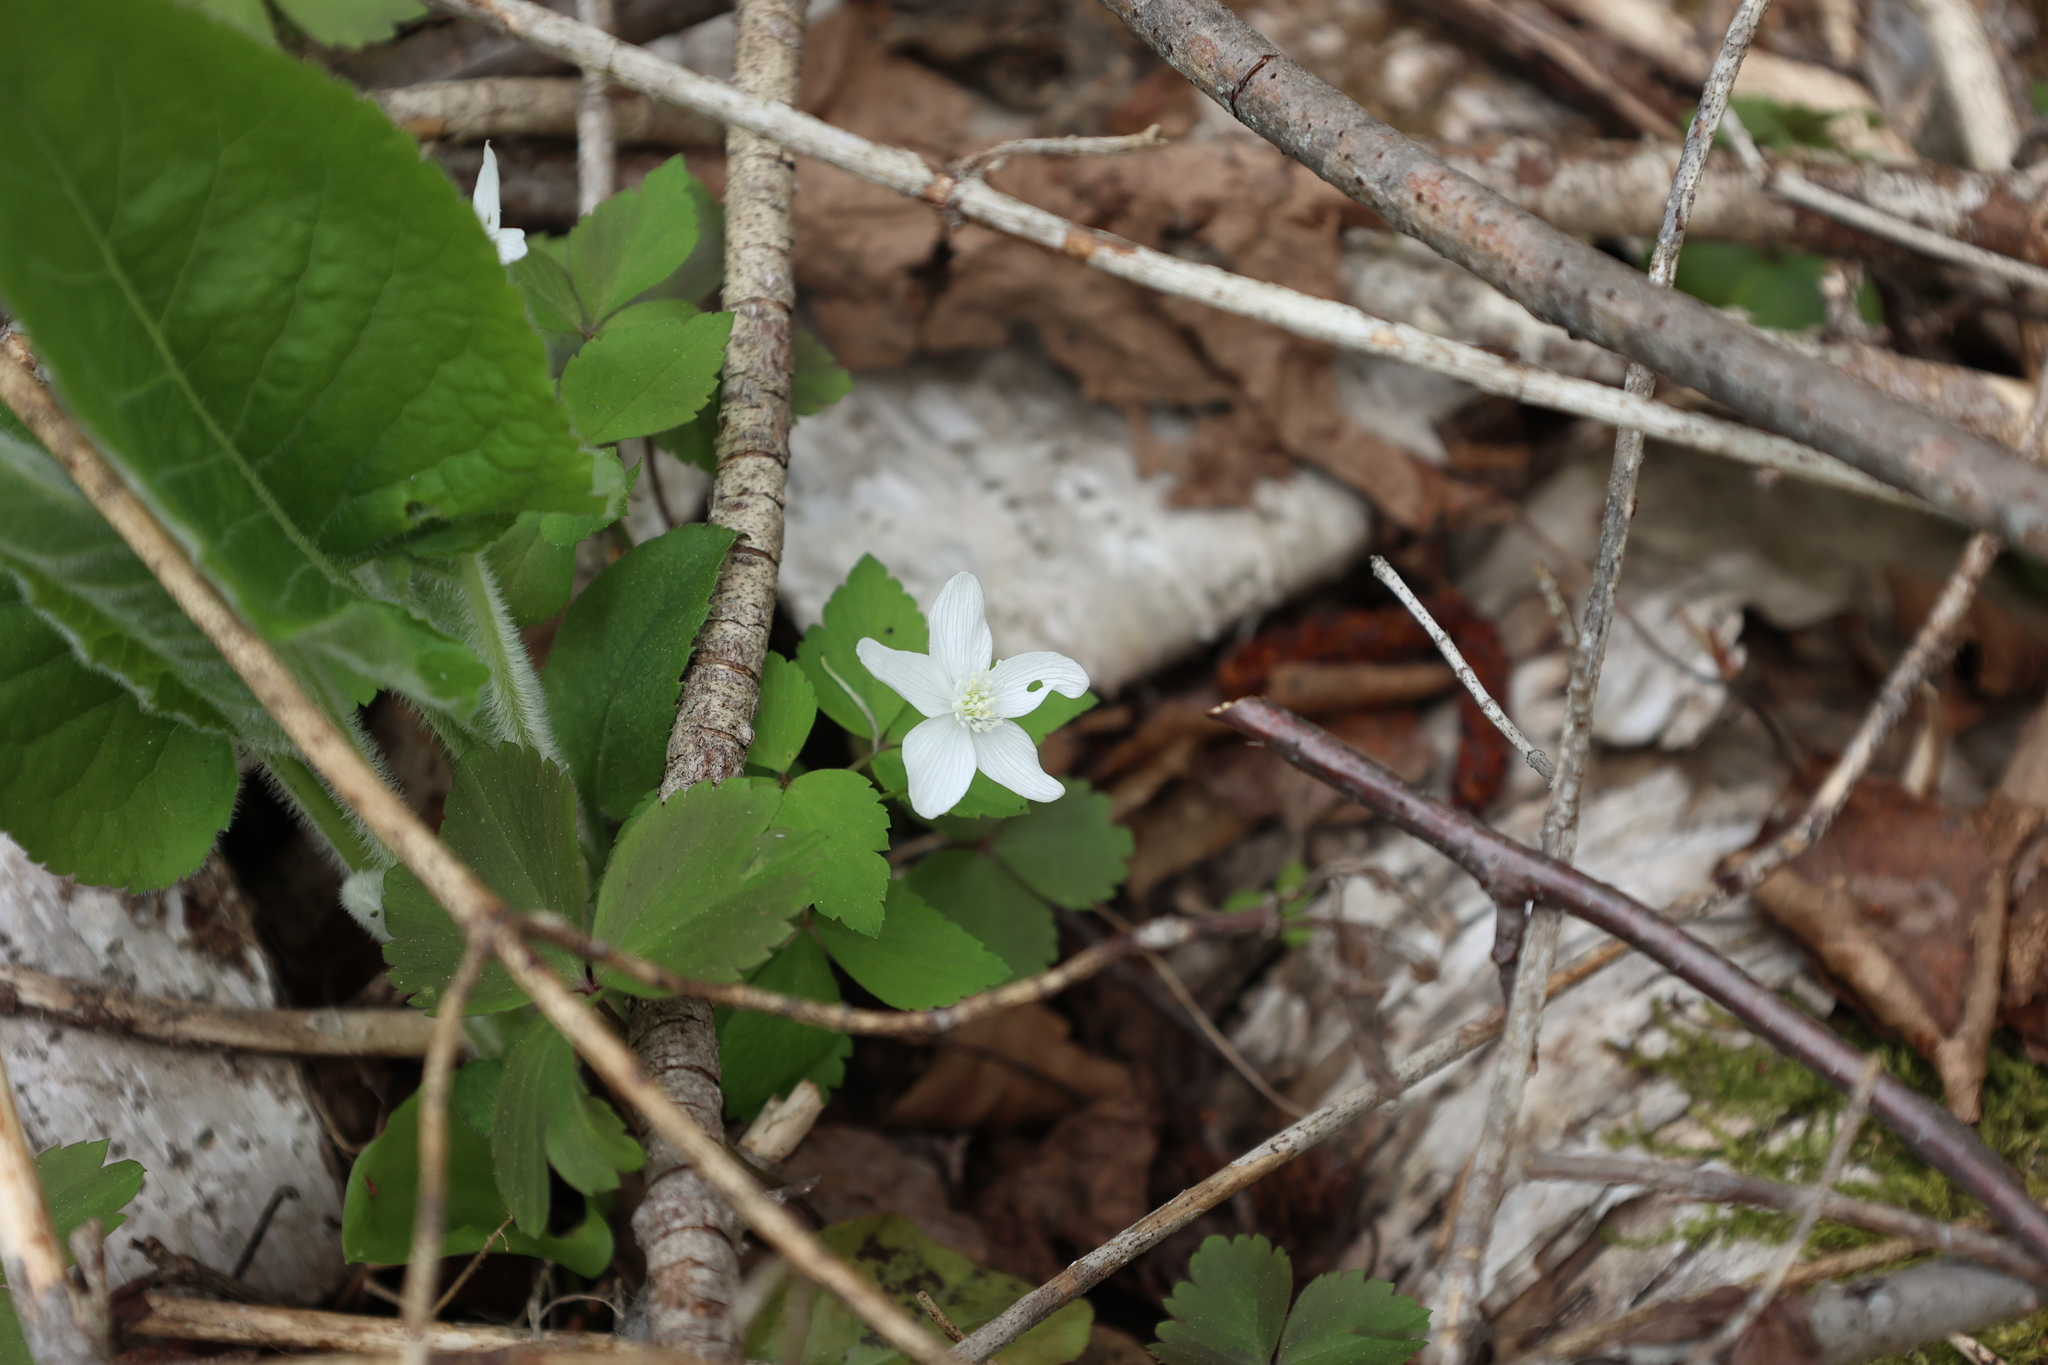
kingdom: Plantae
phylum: Tracheophyta
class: Magnoliopsida
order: Ranunculales
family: Ranunculaceae
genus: Anemone
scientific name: Anemone quinquefolia
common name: Wood anemone
